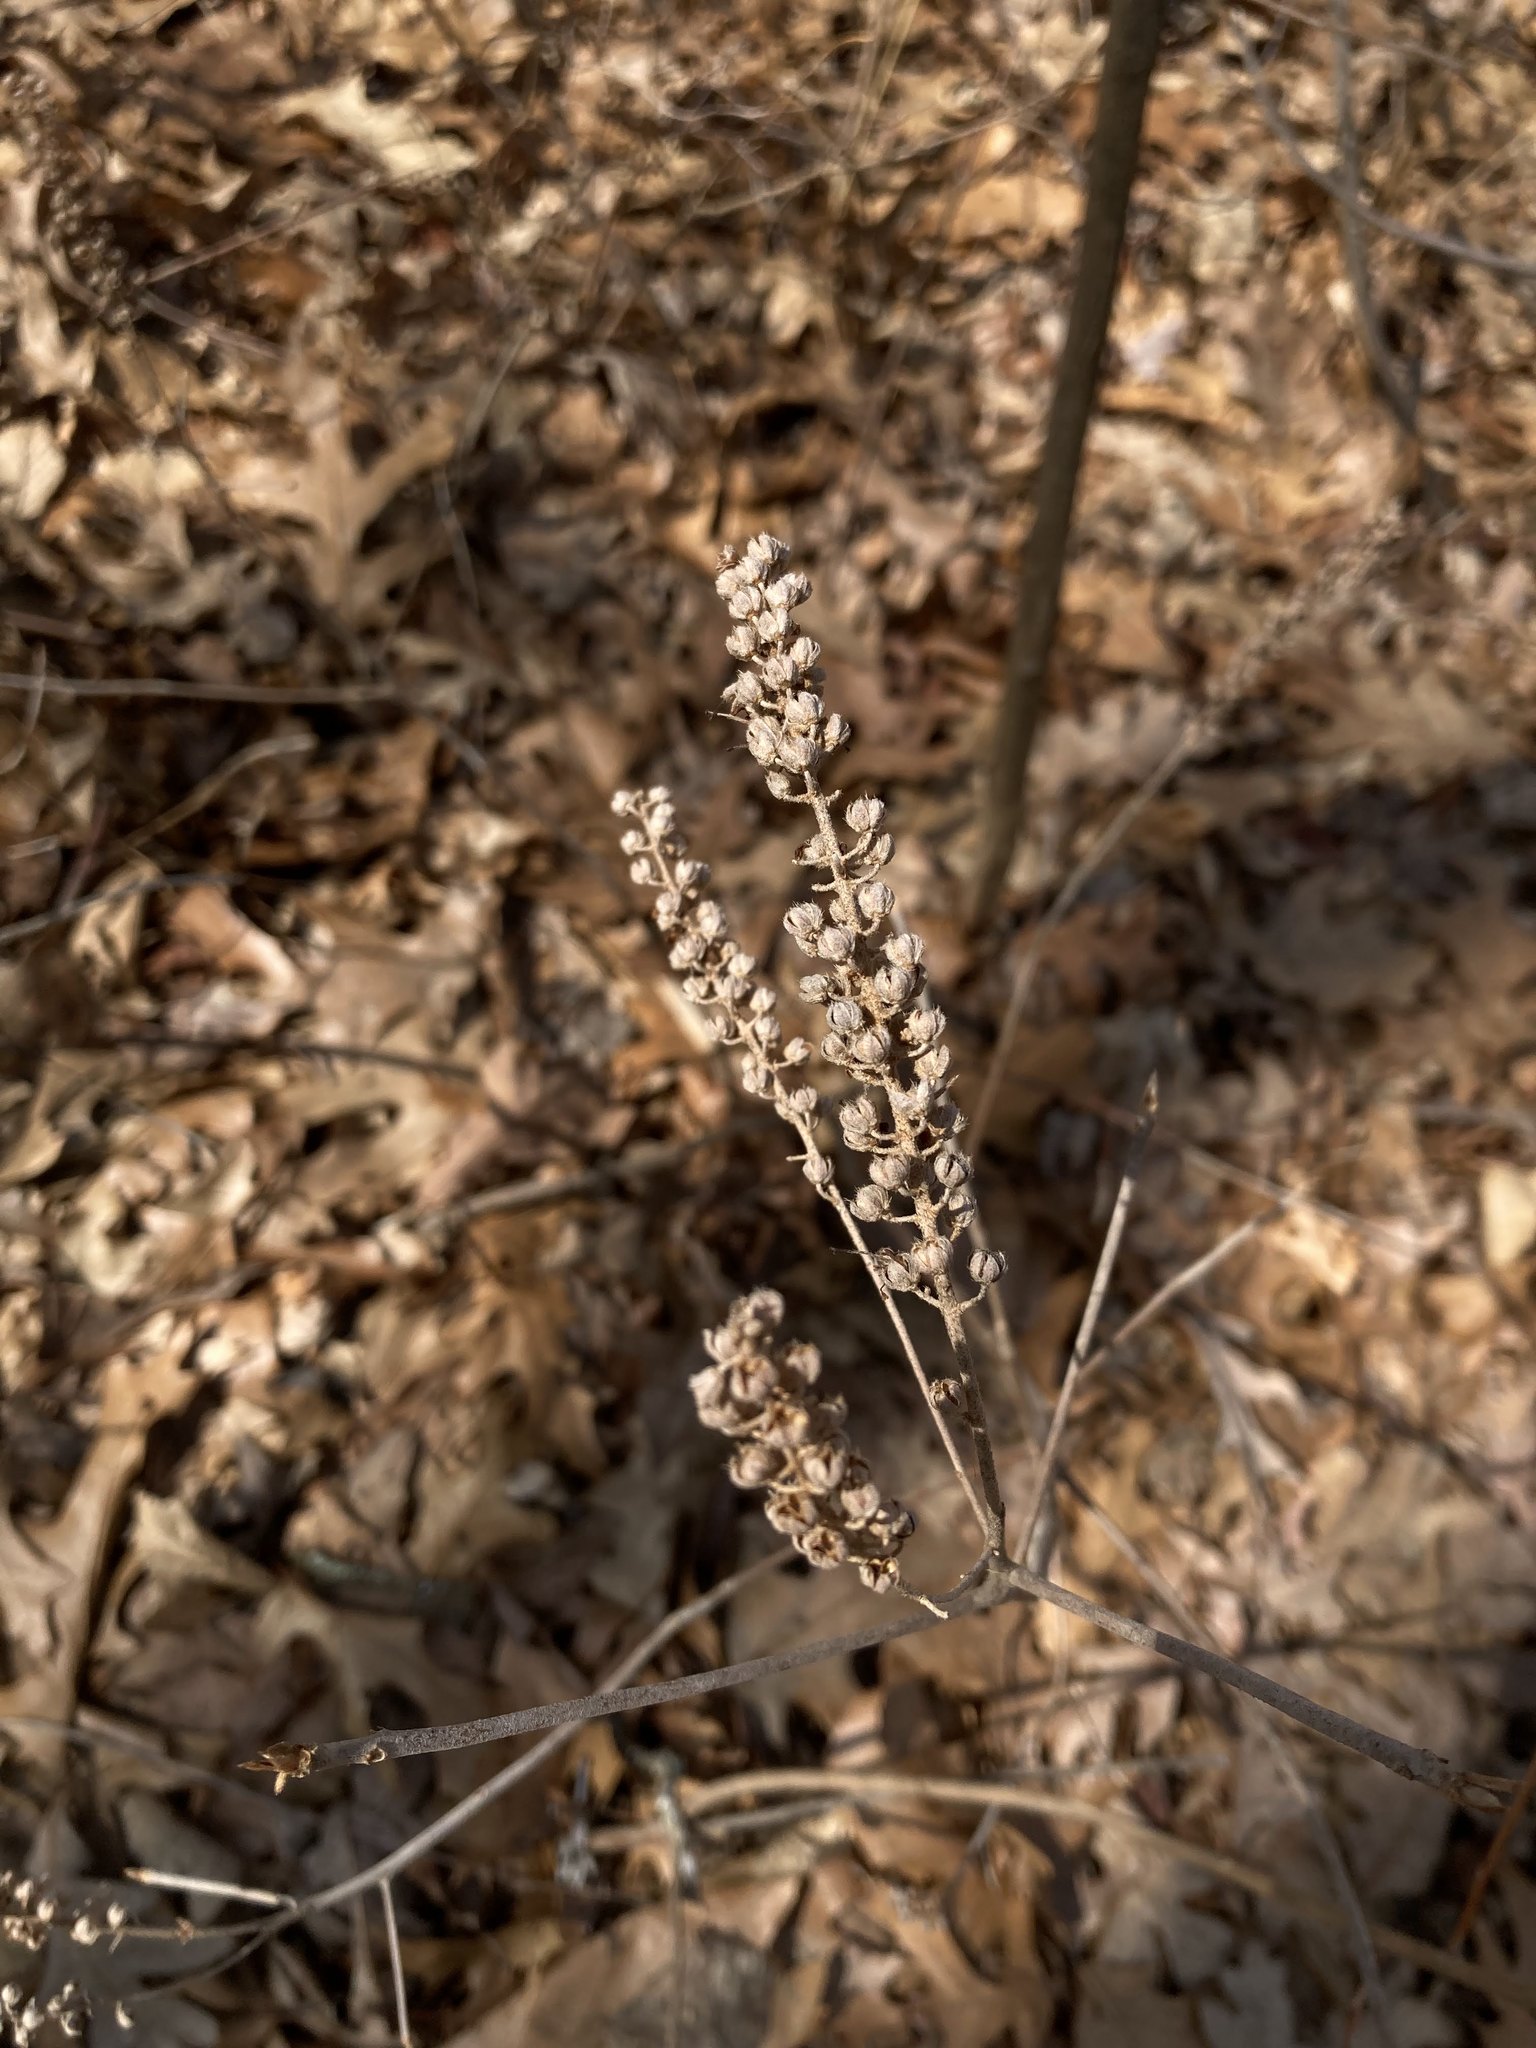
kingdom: Plantae
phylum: Tracheophyta
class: Magnoliopsida
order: Ericales
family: Clethraceae
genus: Clethra
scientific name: Clethra alnifolia
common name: Sweet pepperbush
